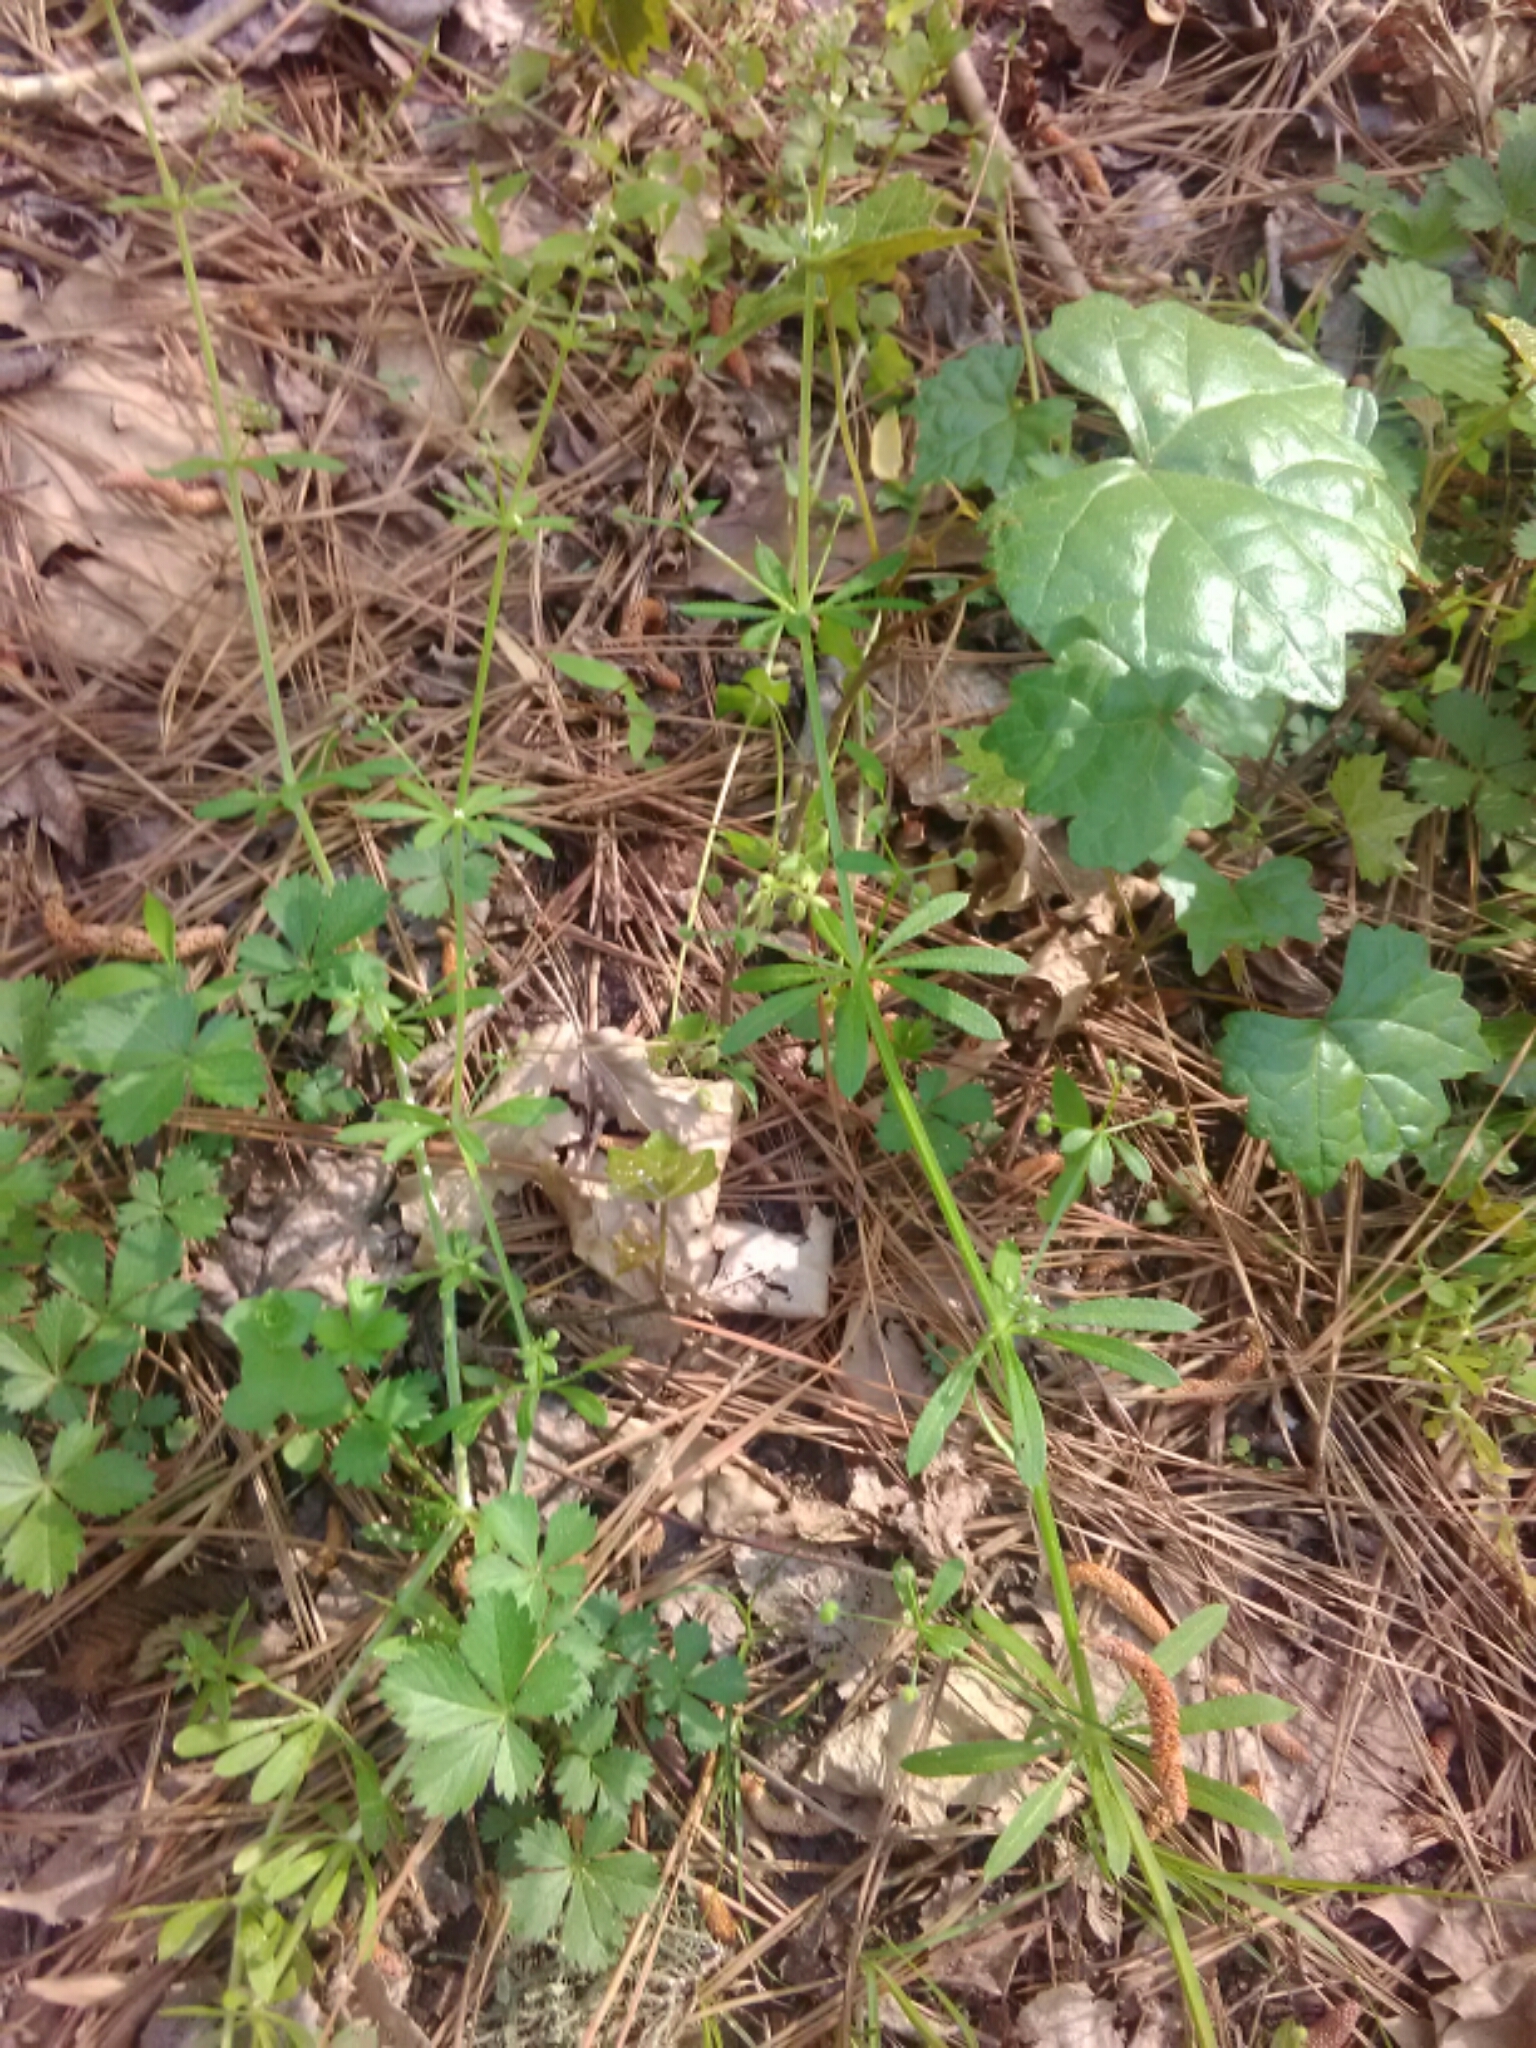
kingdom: Plantae
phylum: Tracheophyta
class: Magnoliopsida
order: Gentianales
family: Rubiaceae
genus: Galium
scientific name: Galium aparine
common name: Cleavers
